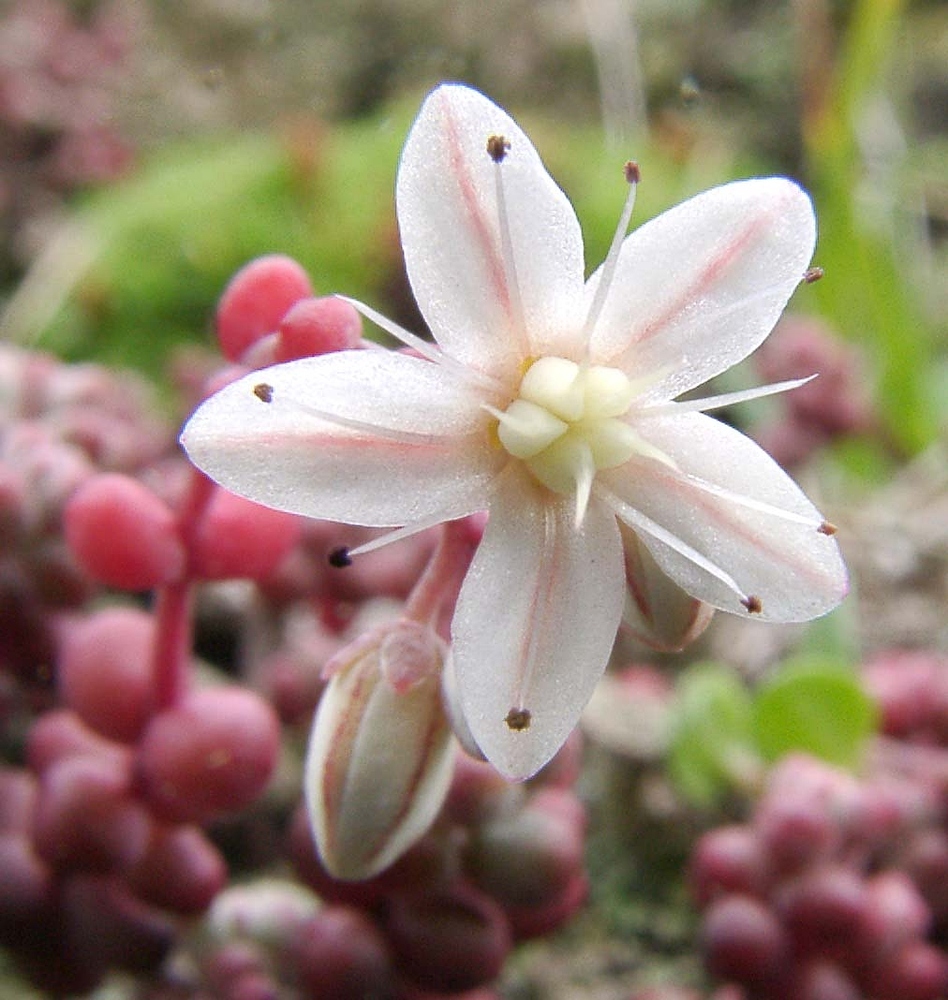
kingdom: Plantae
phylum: Tracheophyta
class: Magnoliopsida
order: Saxifragales
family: Crassulaceae
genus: Sedum
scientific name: Sedum brevifolium
